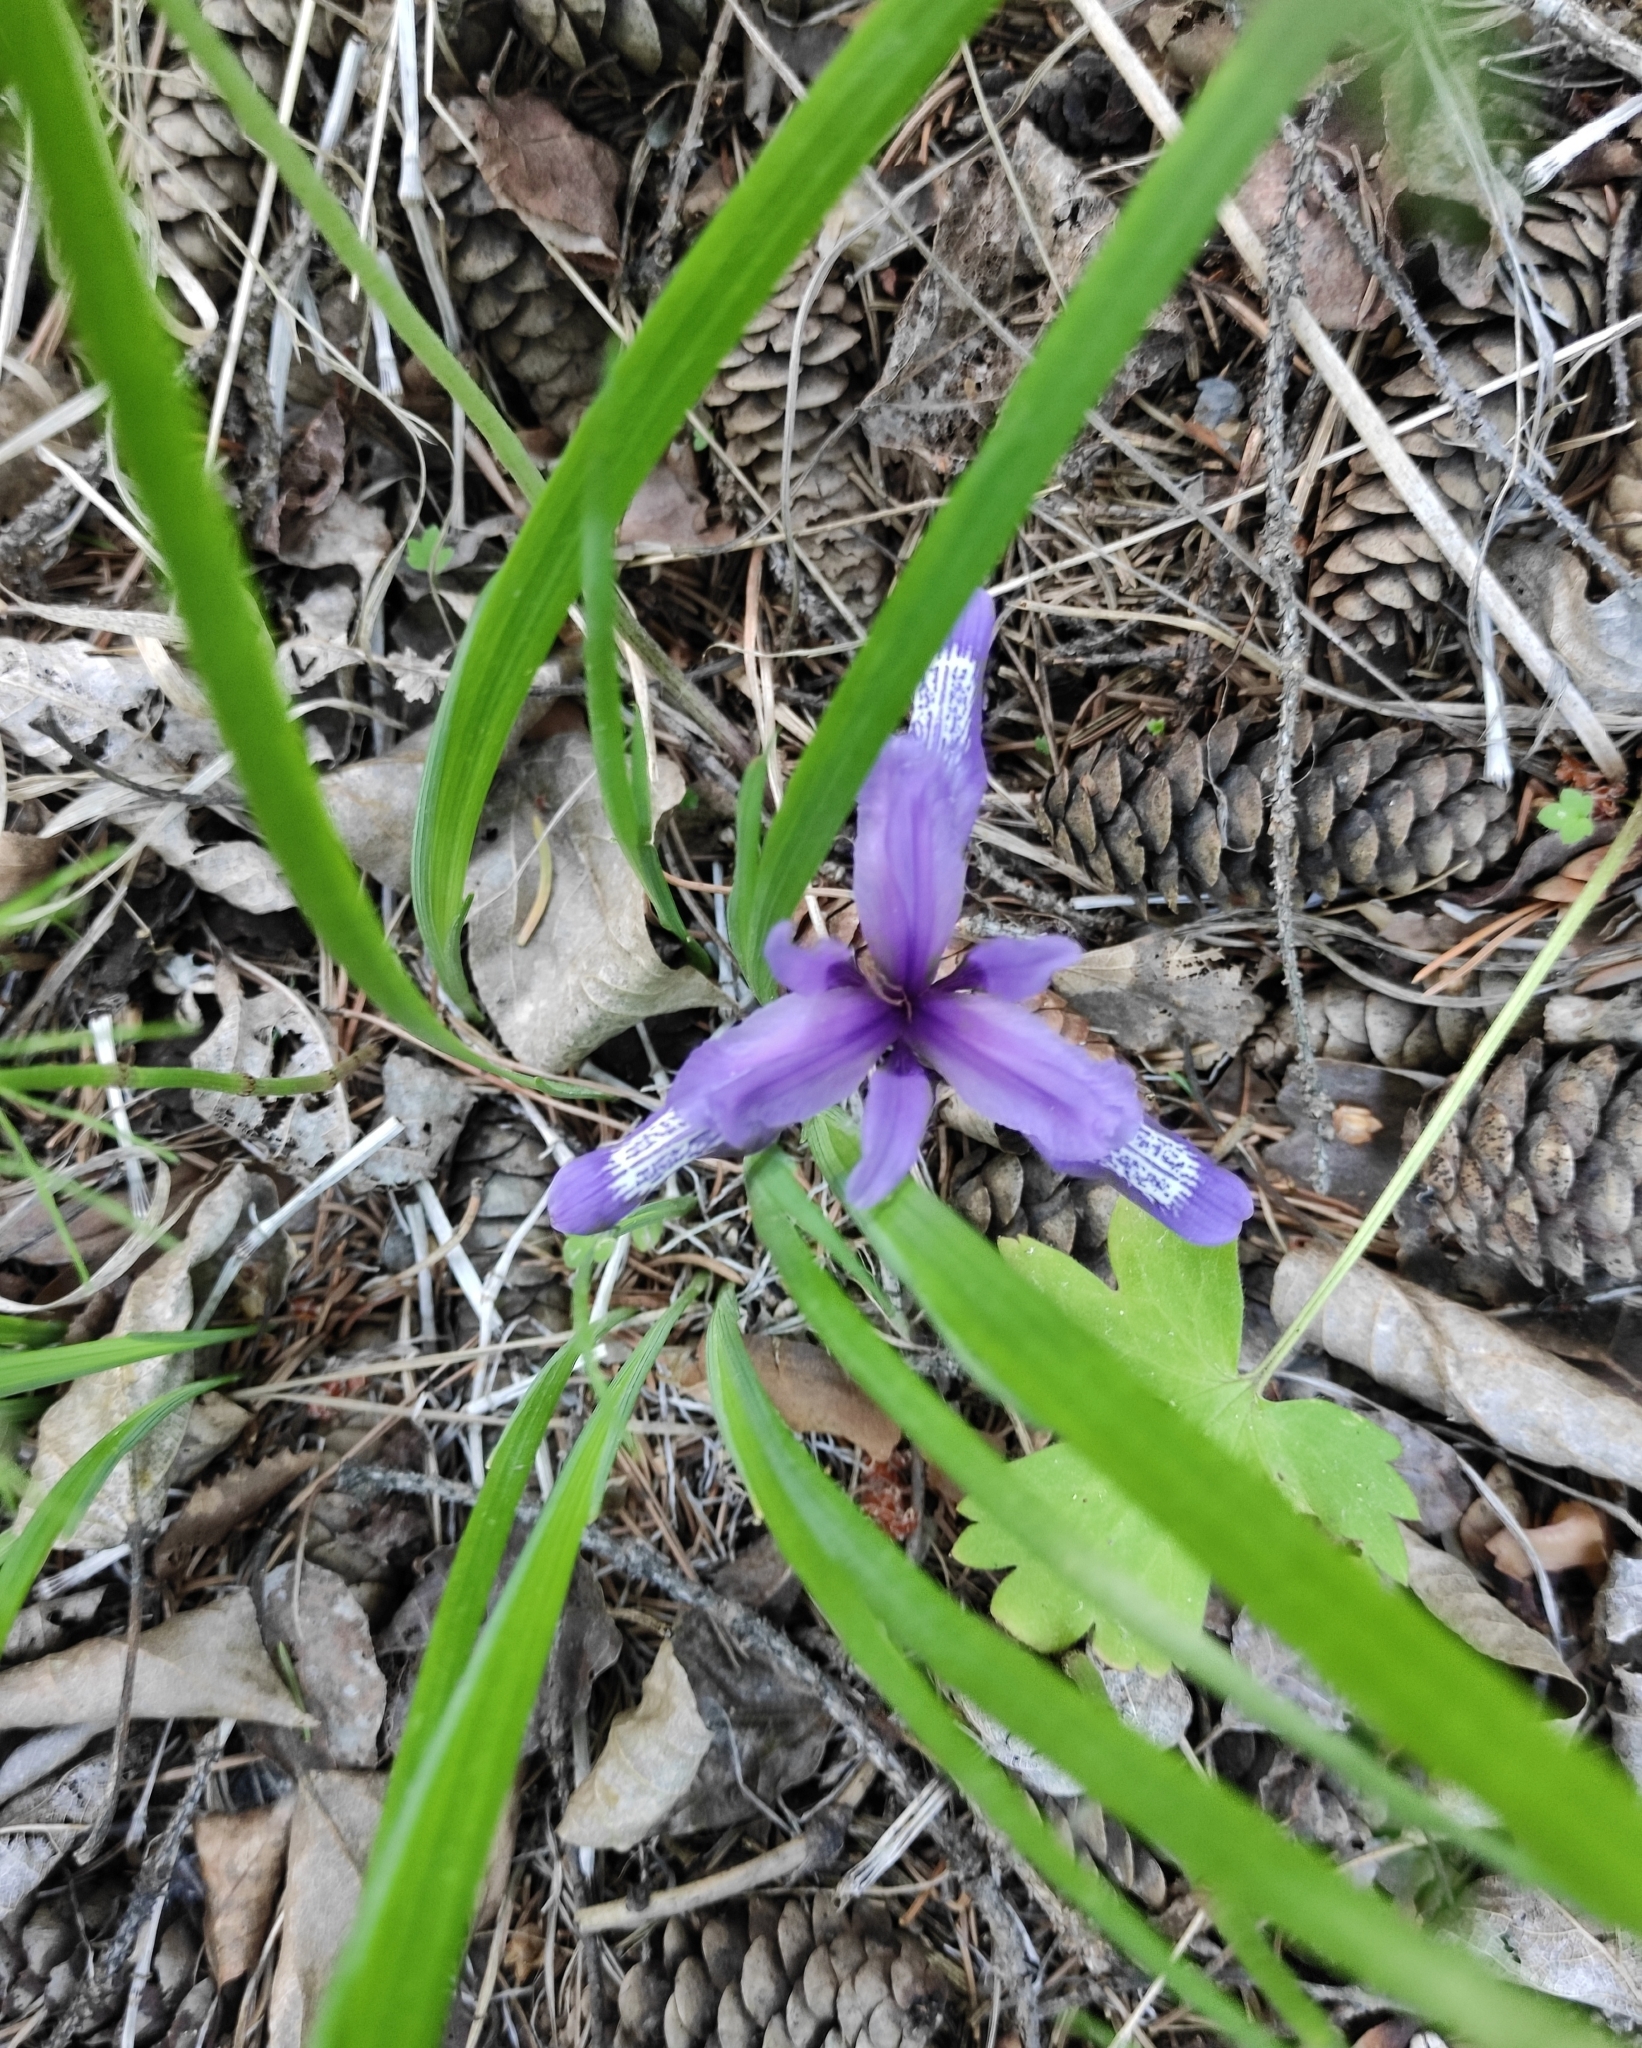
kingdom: Plantae
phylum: Tracheophyta
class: Liliopsida
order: Asparagales
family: Iridaceae
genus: Iris
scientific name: Iris ruthenica
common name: Purple-bract iris
